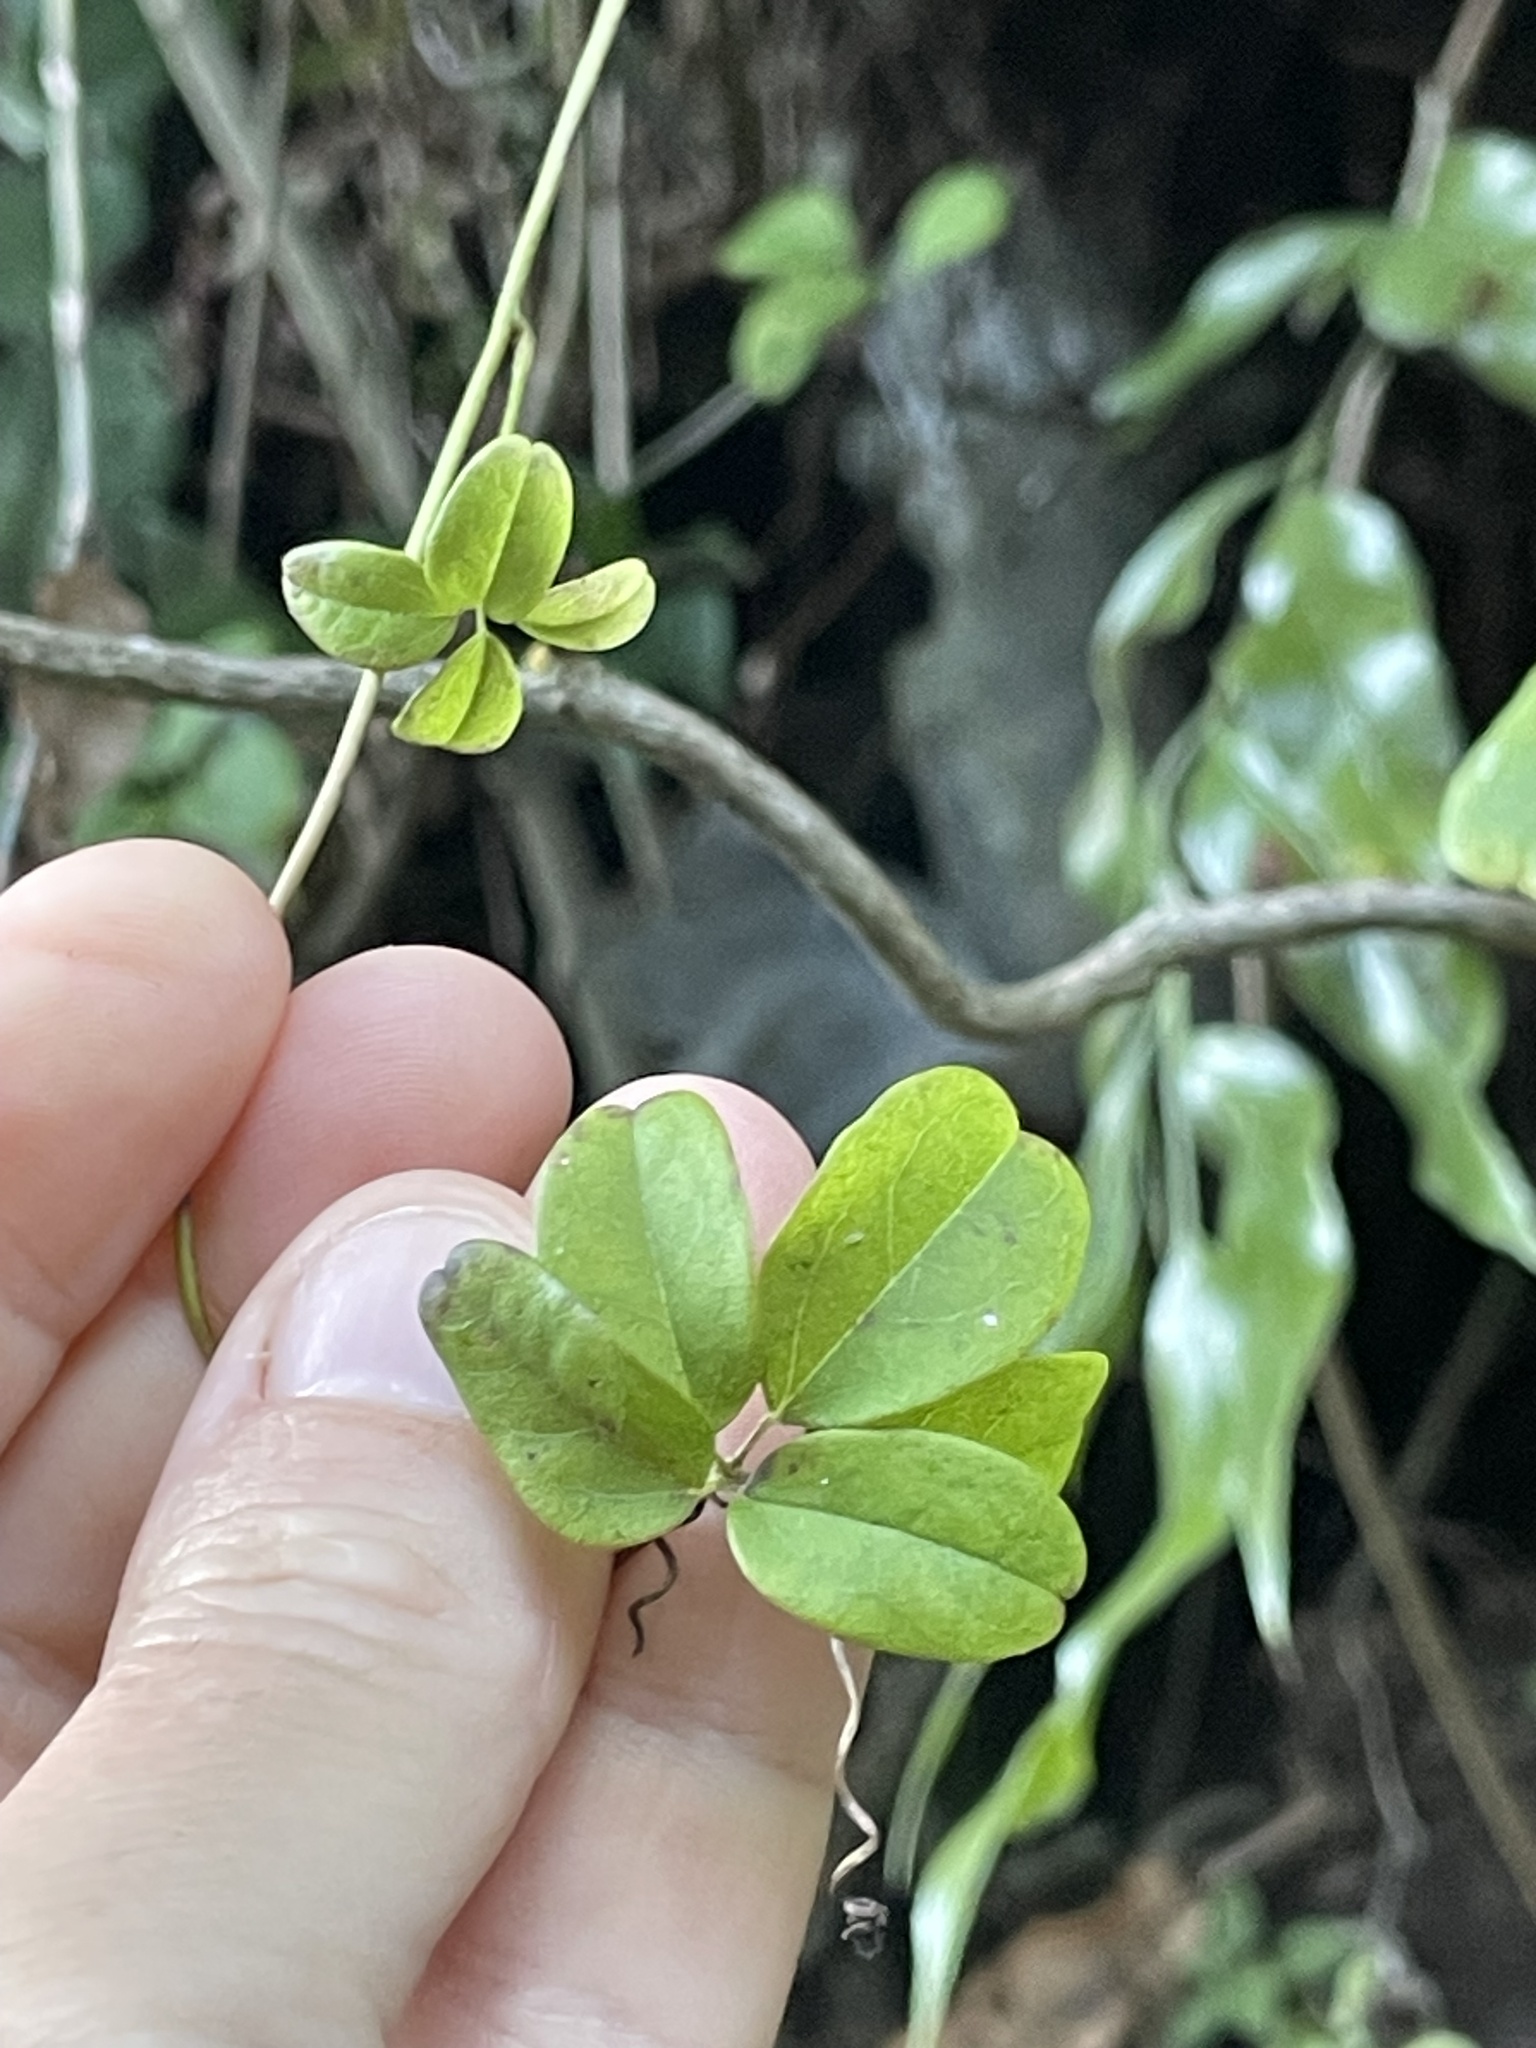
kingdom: Plantae
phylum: Tracheophyta
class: Magnoliopsida
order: Ranunculales
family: Lardizabalaceae
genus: Akebia
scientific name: Akebia quinata
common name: Five-leaf akebia
